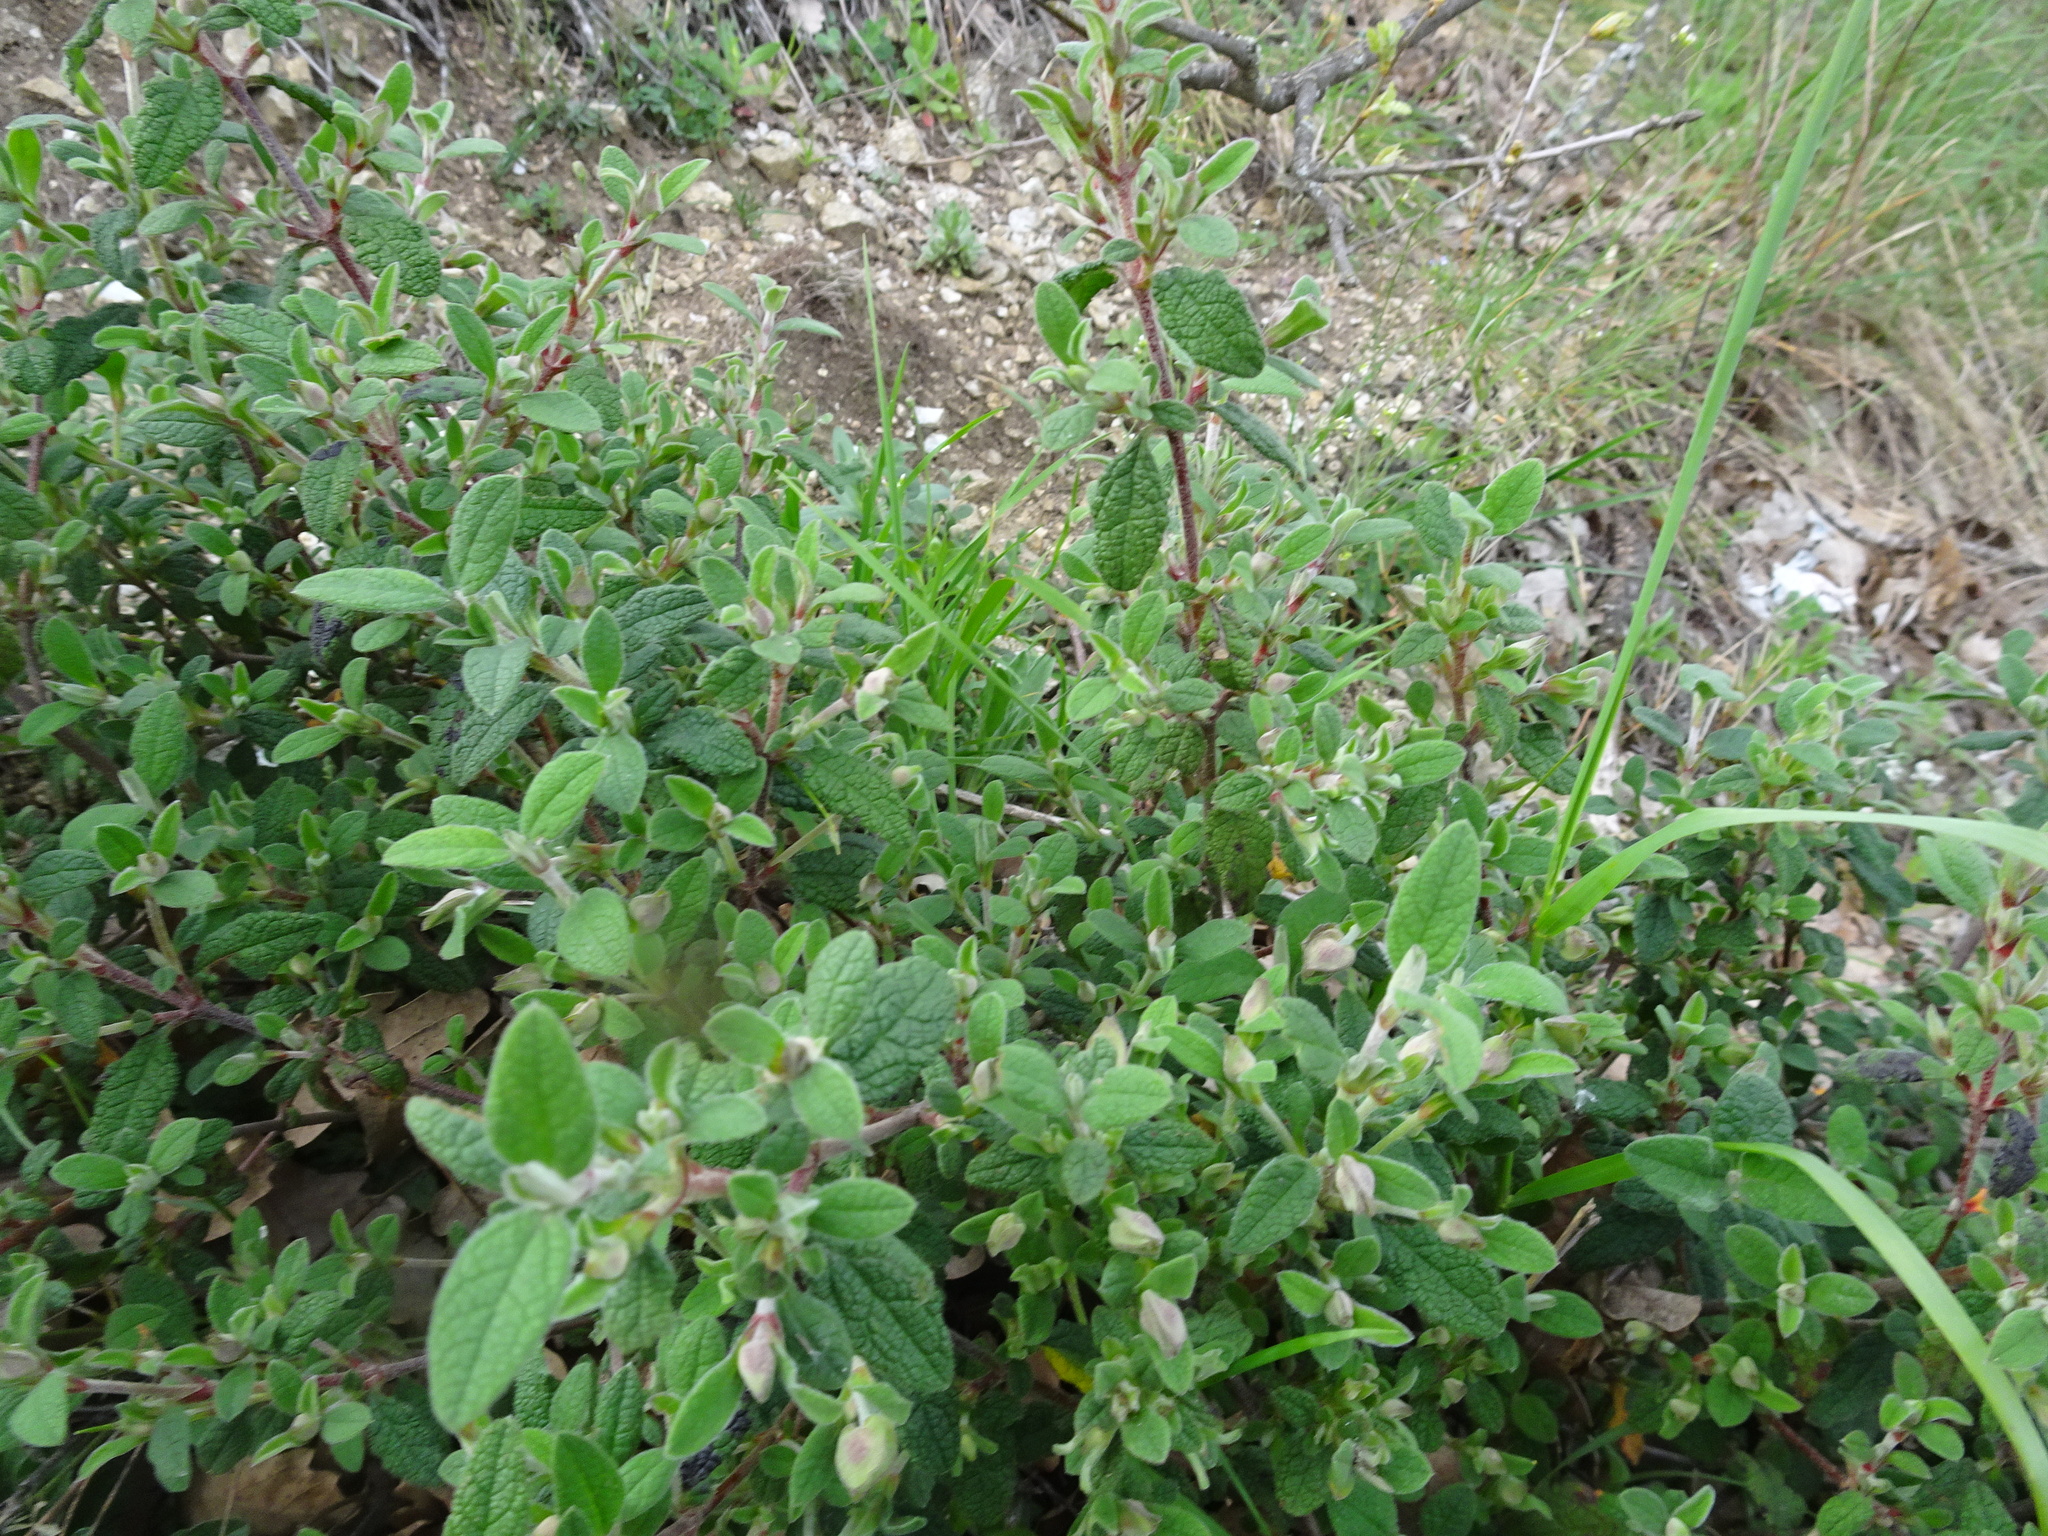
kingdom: Plantae
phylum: Tracheophyta
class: Magnoliopsida
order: Malvales
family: Cistaceae
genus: Cistus
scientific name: Cistus salviifolius
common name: Salvia cistus
